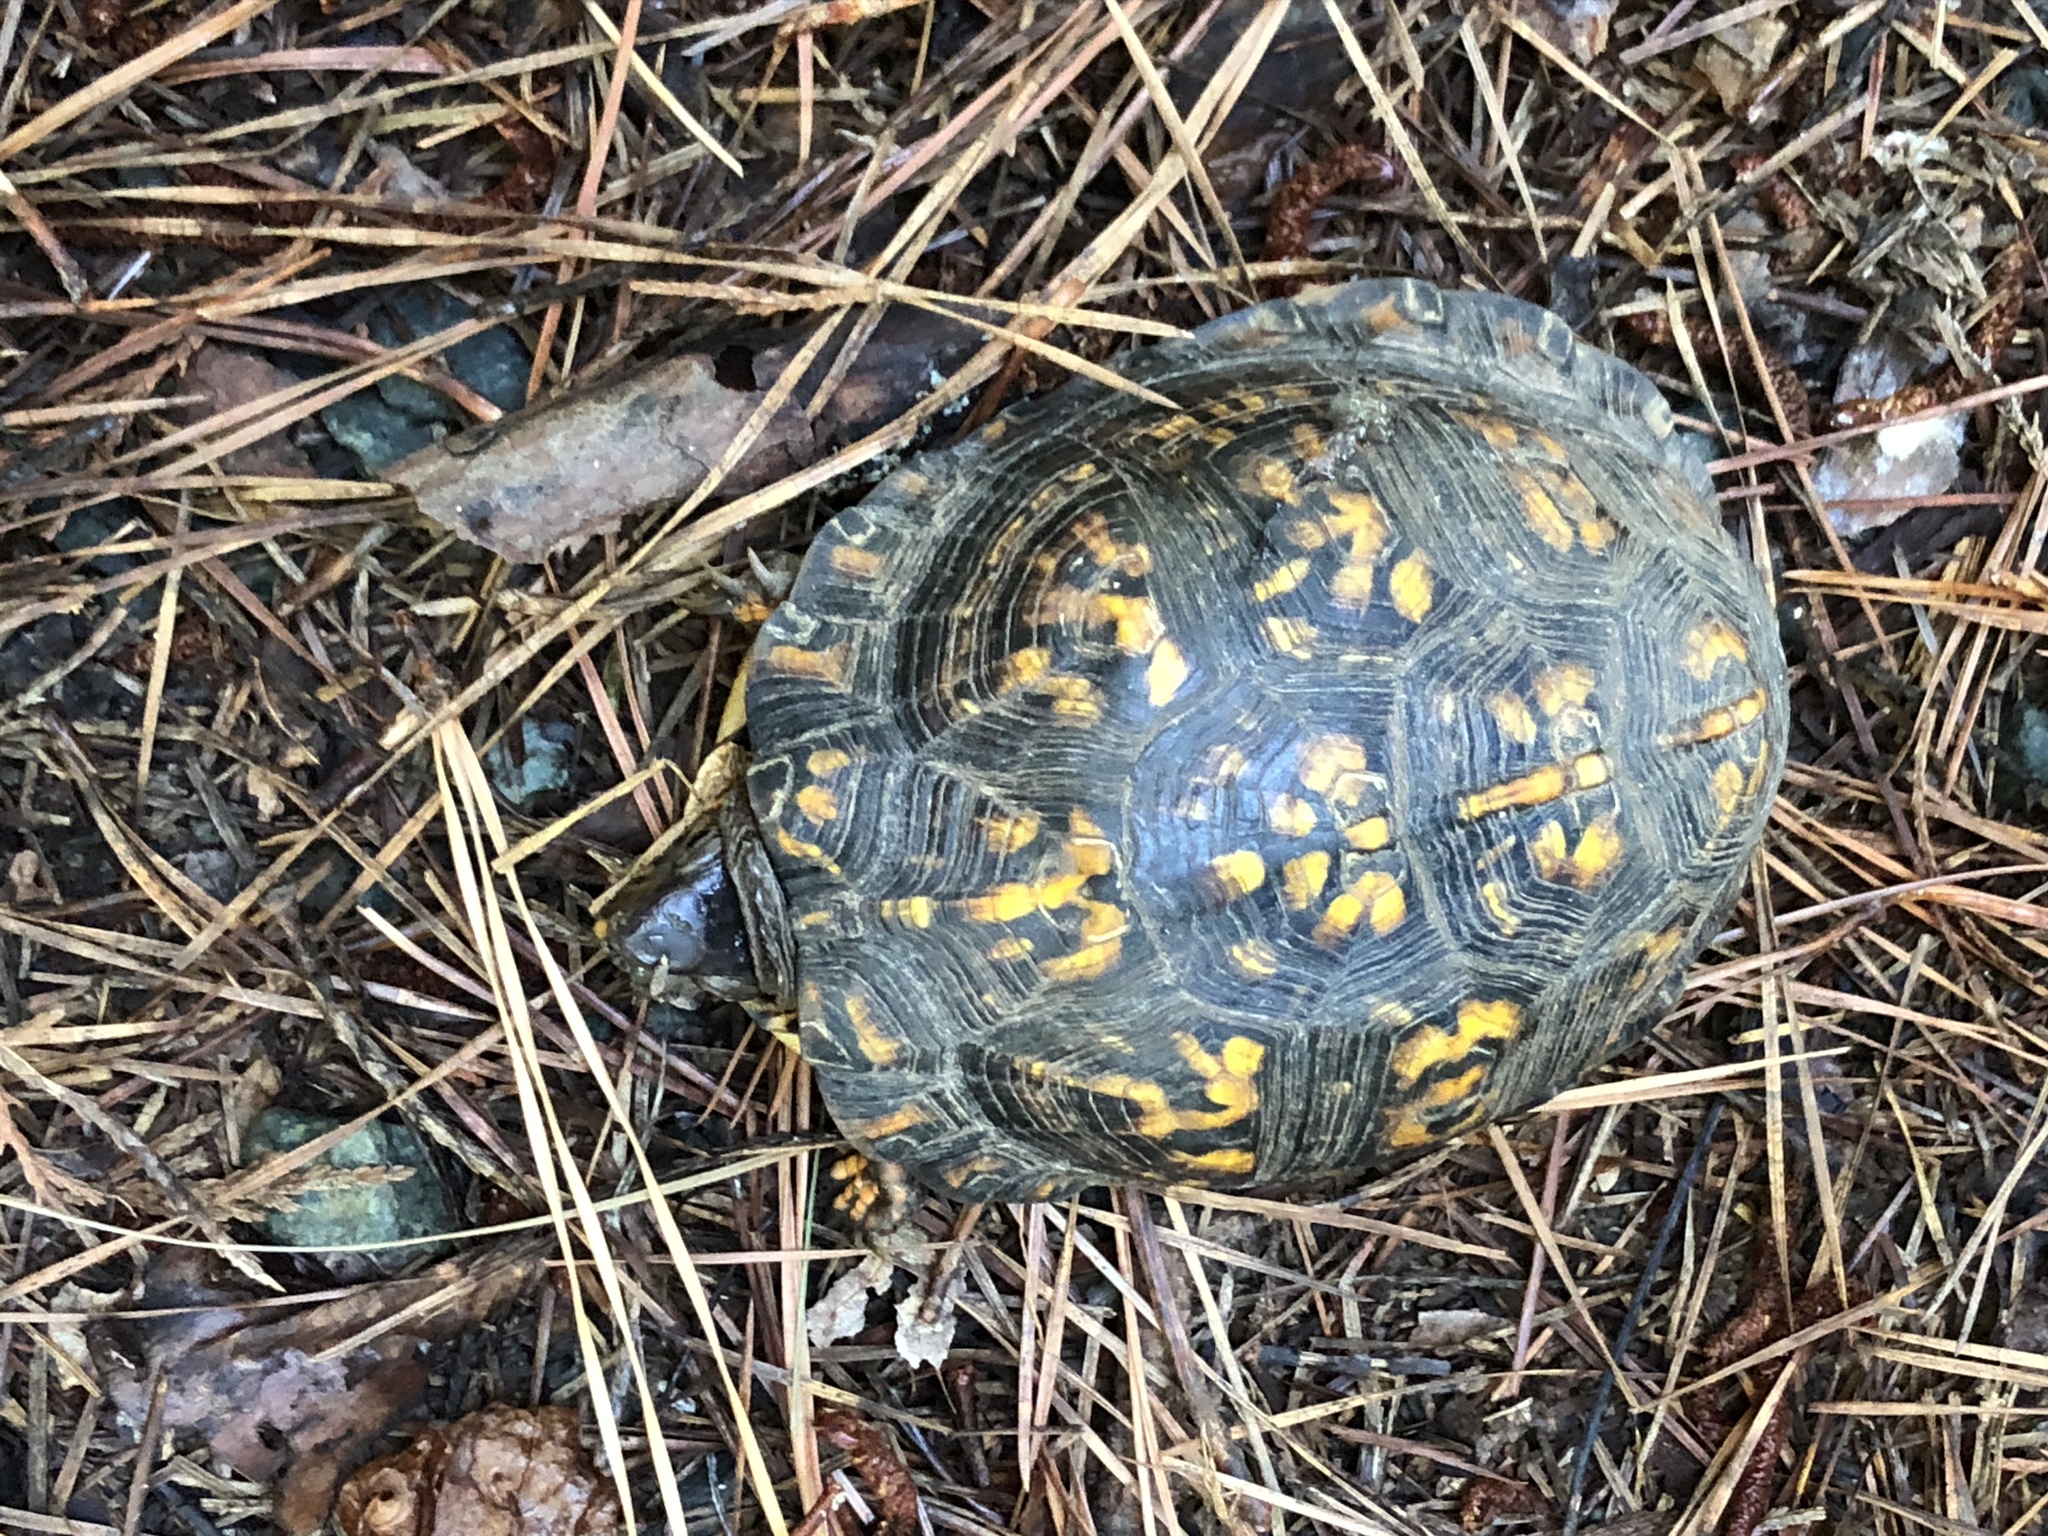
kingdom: Animalia
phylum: Chordata
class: Testudines
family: Emydidae
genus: Terrapene
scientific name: Terrapene carolina
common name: Common box turtle
